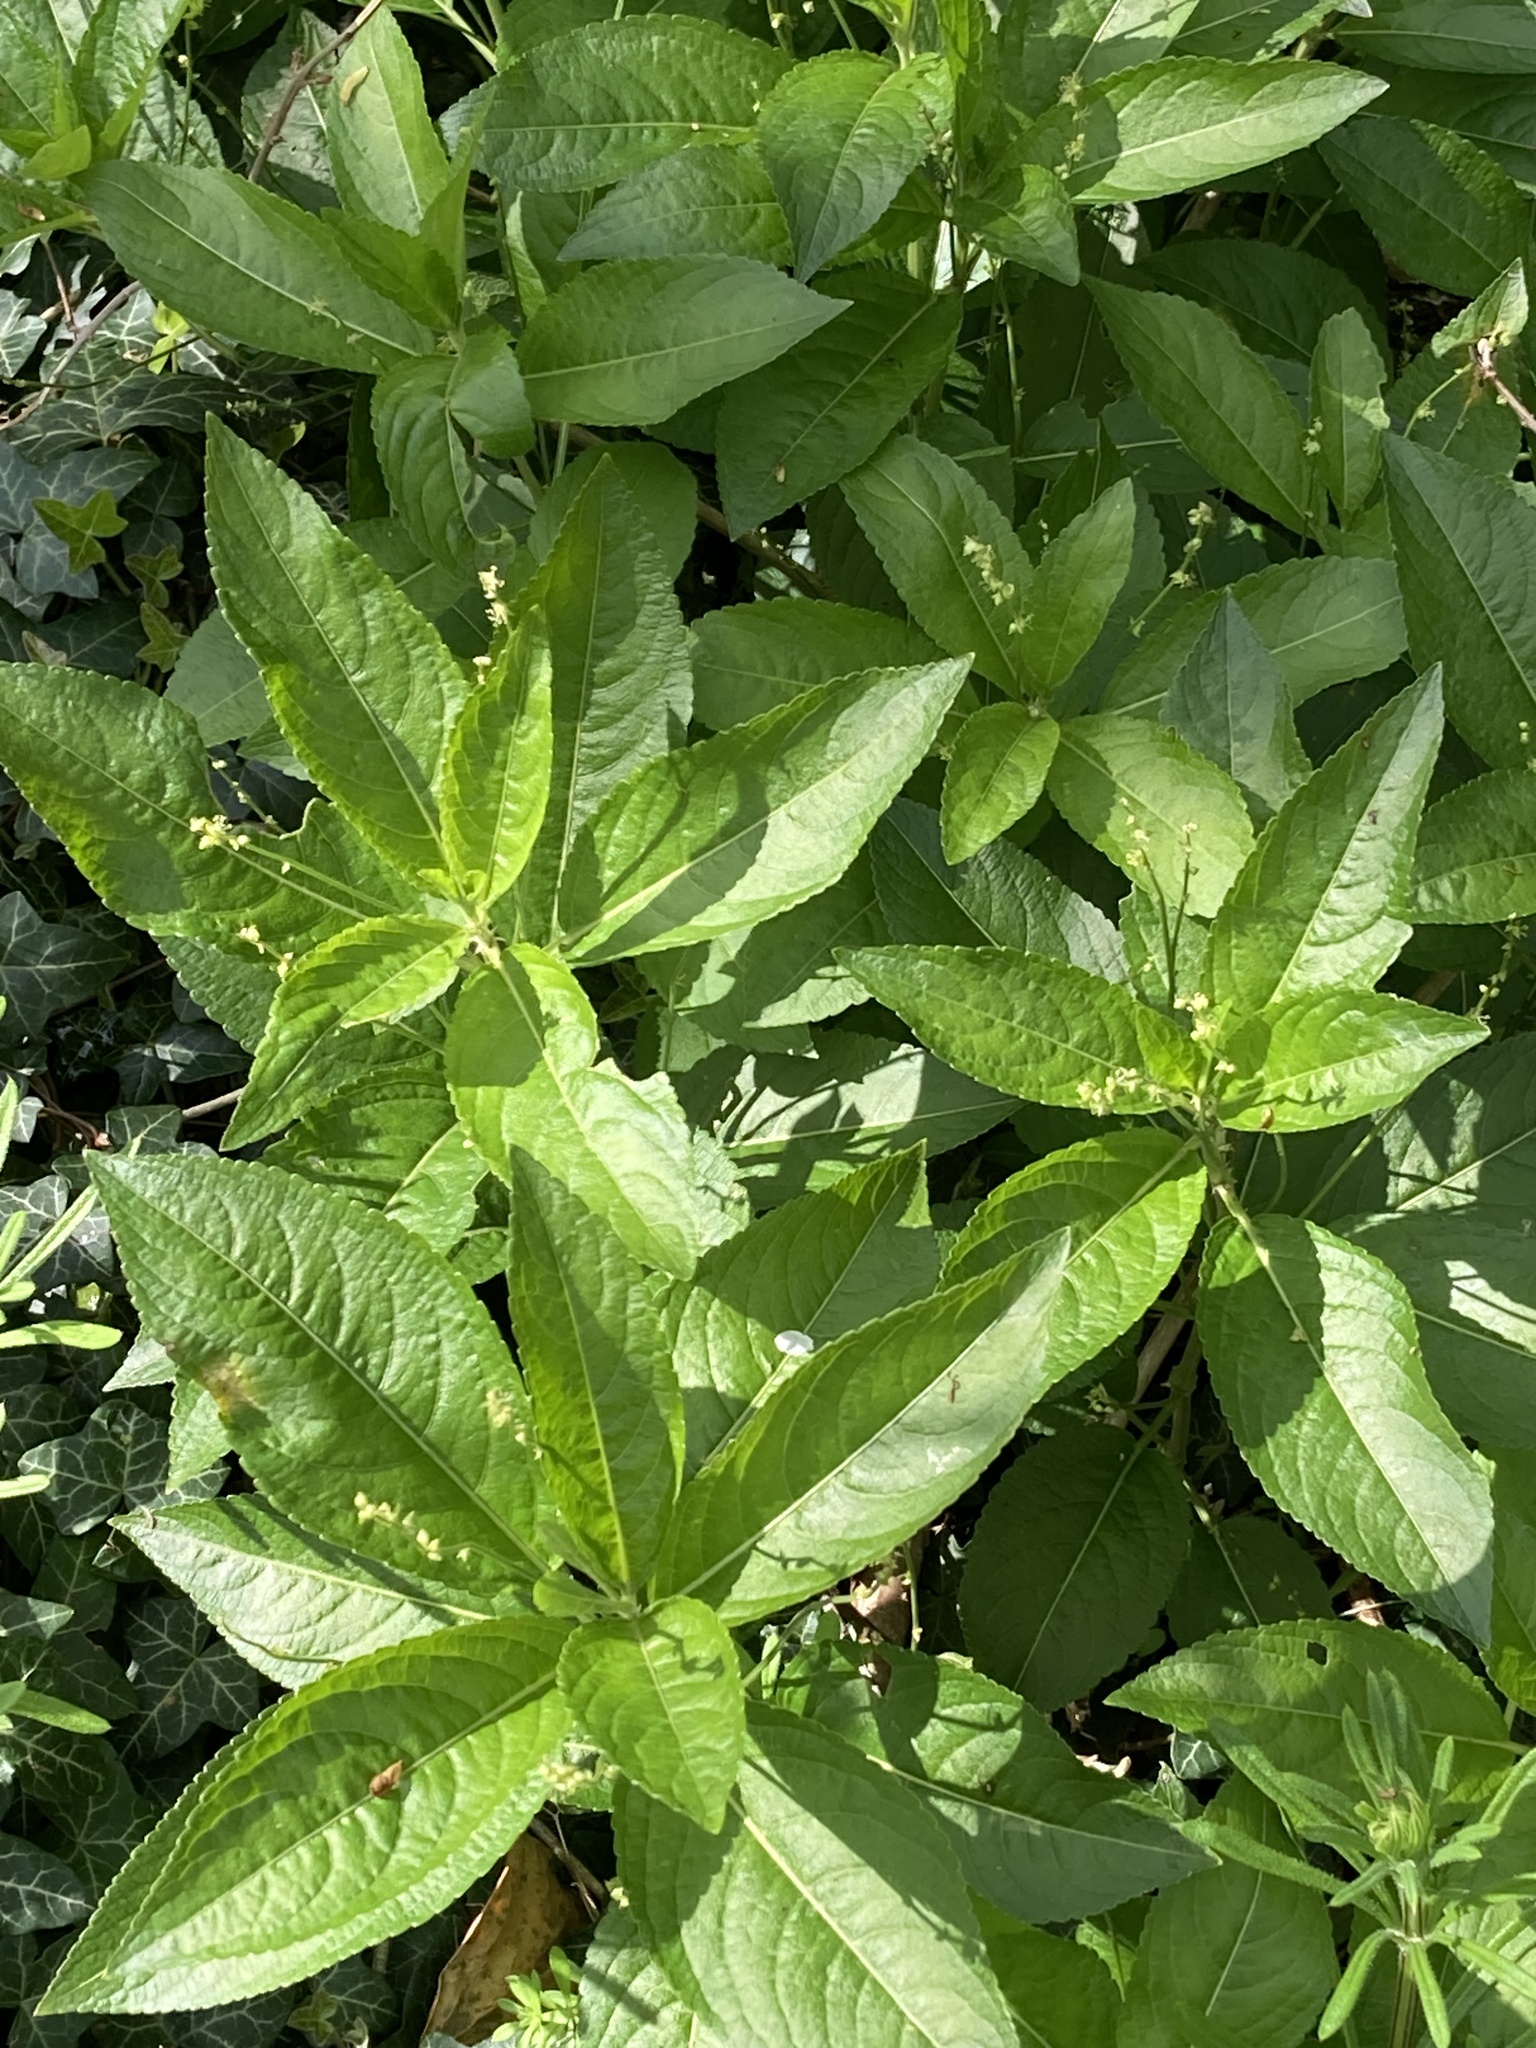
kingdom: Plantae
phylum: Tracheophyta
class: Magnoliopsida
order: Malpighiales
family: Euphorbiaceae
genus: Mercurialis
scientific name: Mercurialis perennis
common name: Dog mercury
